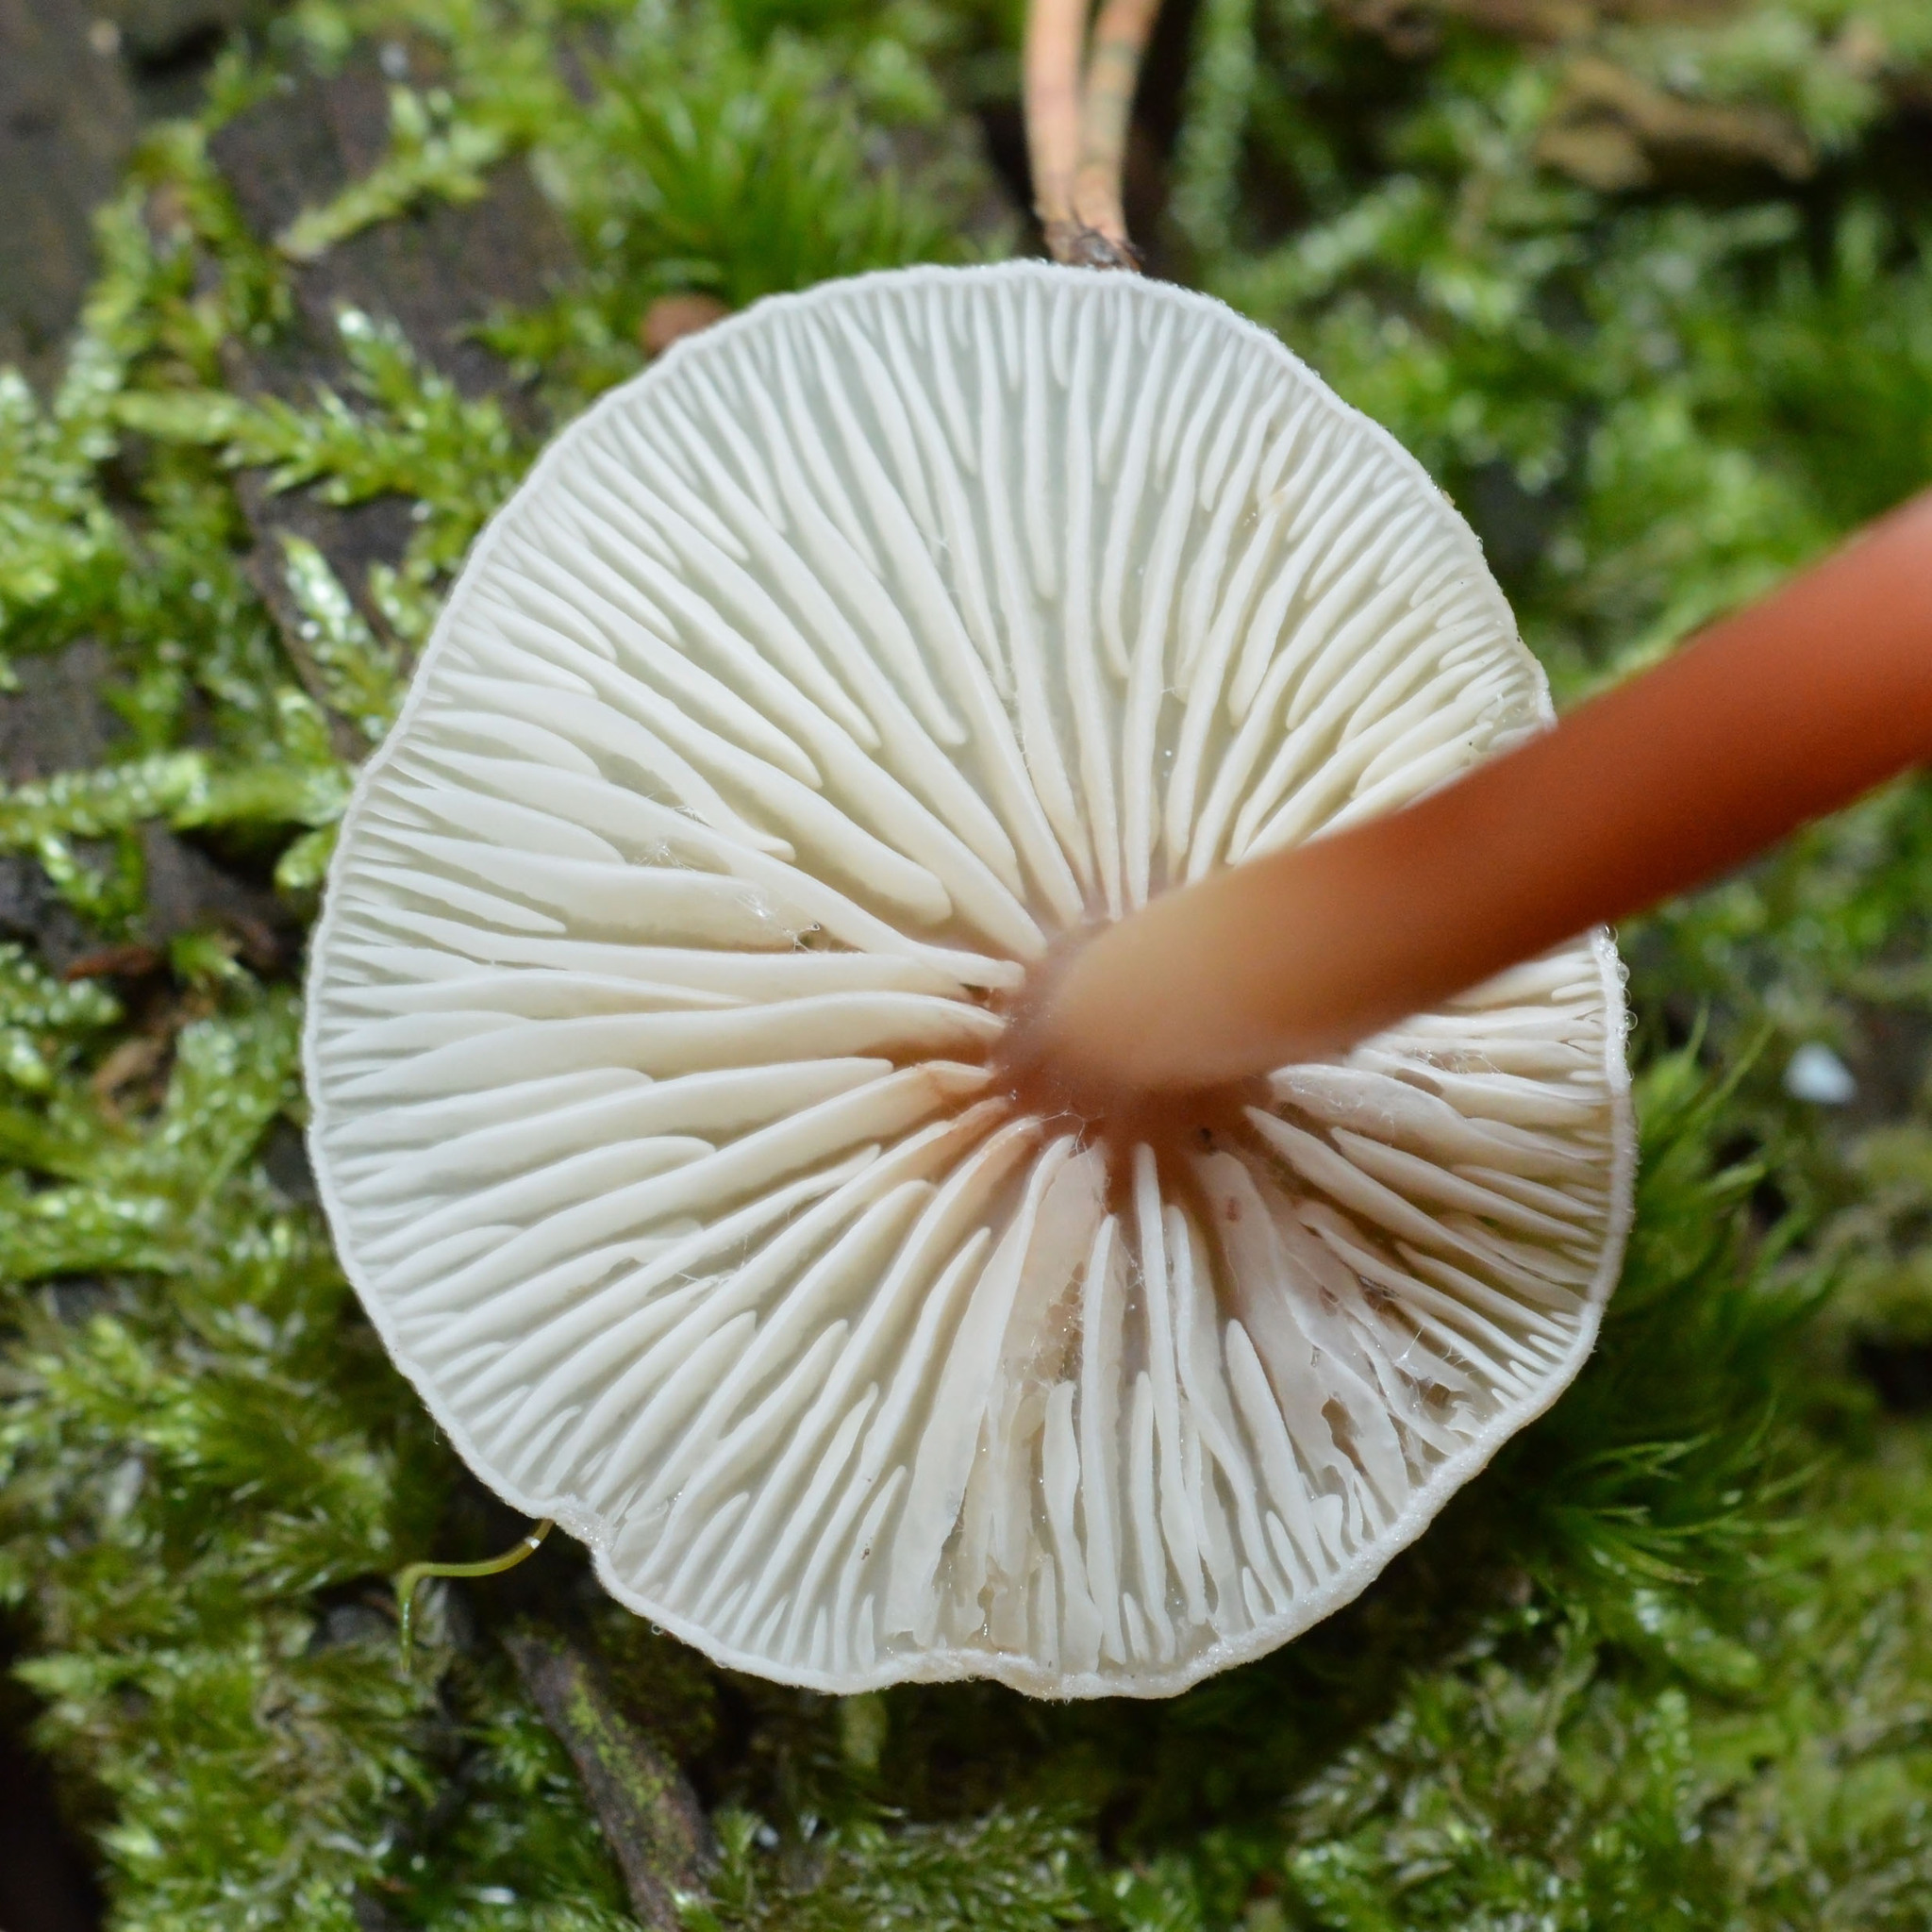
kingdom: Fungi
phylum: Basidiomycota
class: Agaricomycetes
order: Agaricales
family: Omphalotaceae
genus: Gymnopus
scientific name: Gymnopus erythropus
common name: Redleg toughshank
